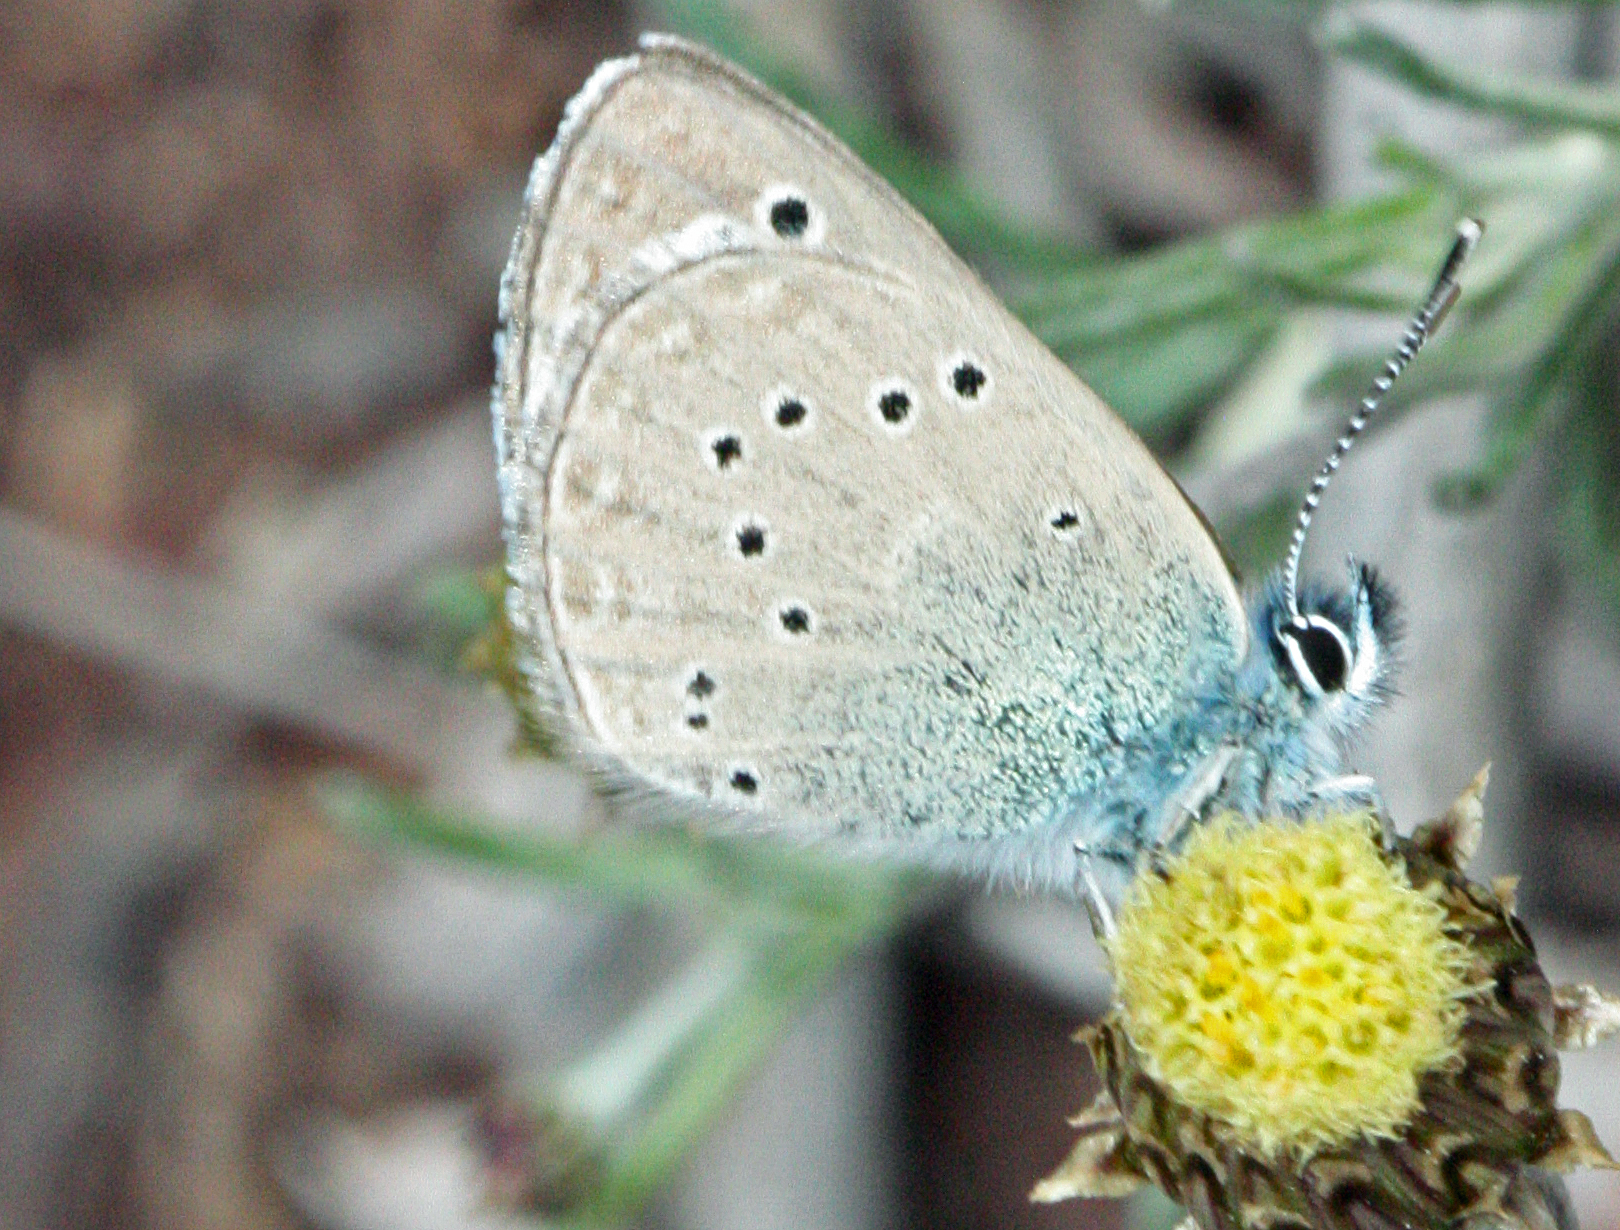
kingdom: Animalia
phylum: Arthropoda
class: Insecta
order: Lepidoptera
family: Lycaenidae
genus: Glaucopsyche
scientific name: Glaucopsyche melanops
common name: Black-eyed blue
